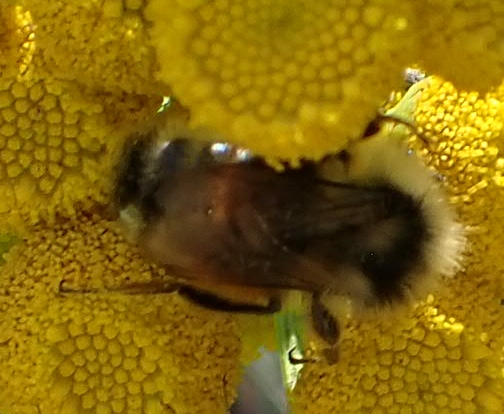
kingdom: Animalia
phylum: Arthropoda
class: Insecta
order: Hymenoptera
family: Apidae
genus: Bombus
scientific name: Bombus ternarius
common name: Tri-colored bumble bee
